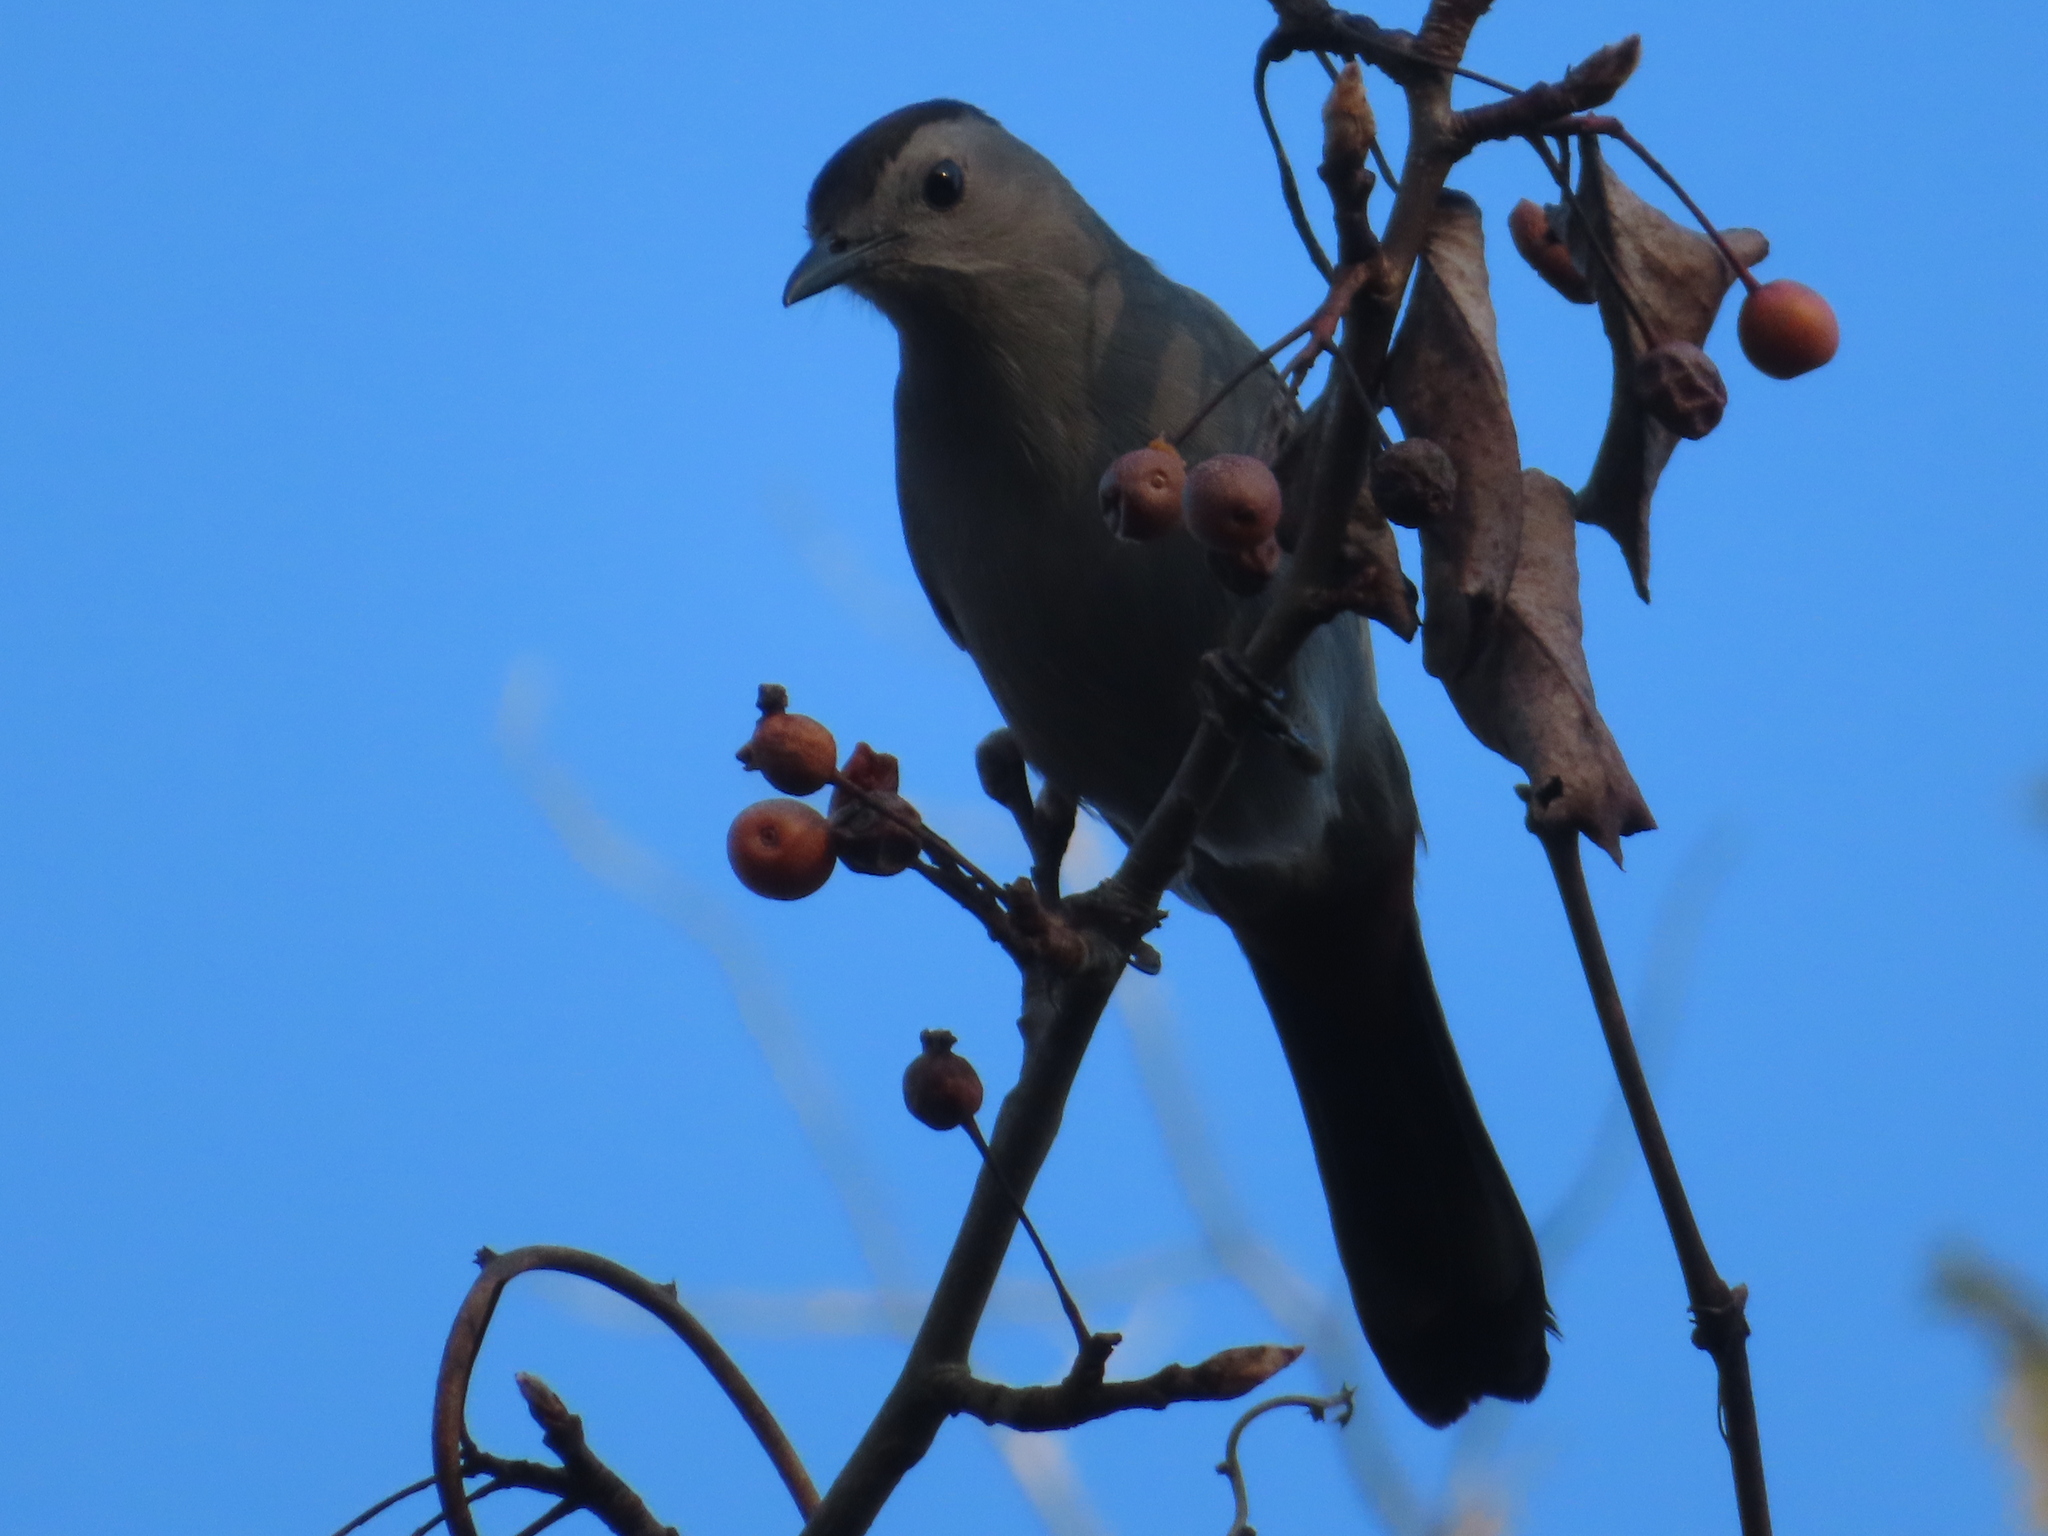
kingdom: Animalia
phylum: Chordata
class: Aves
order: Passeriformes
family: Mimidae
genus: Dumetella
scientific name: Dumetella carolinensis
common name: Gray catbird
